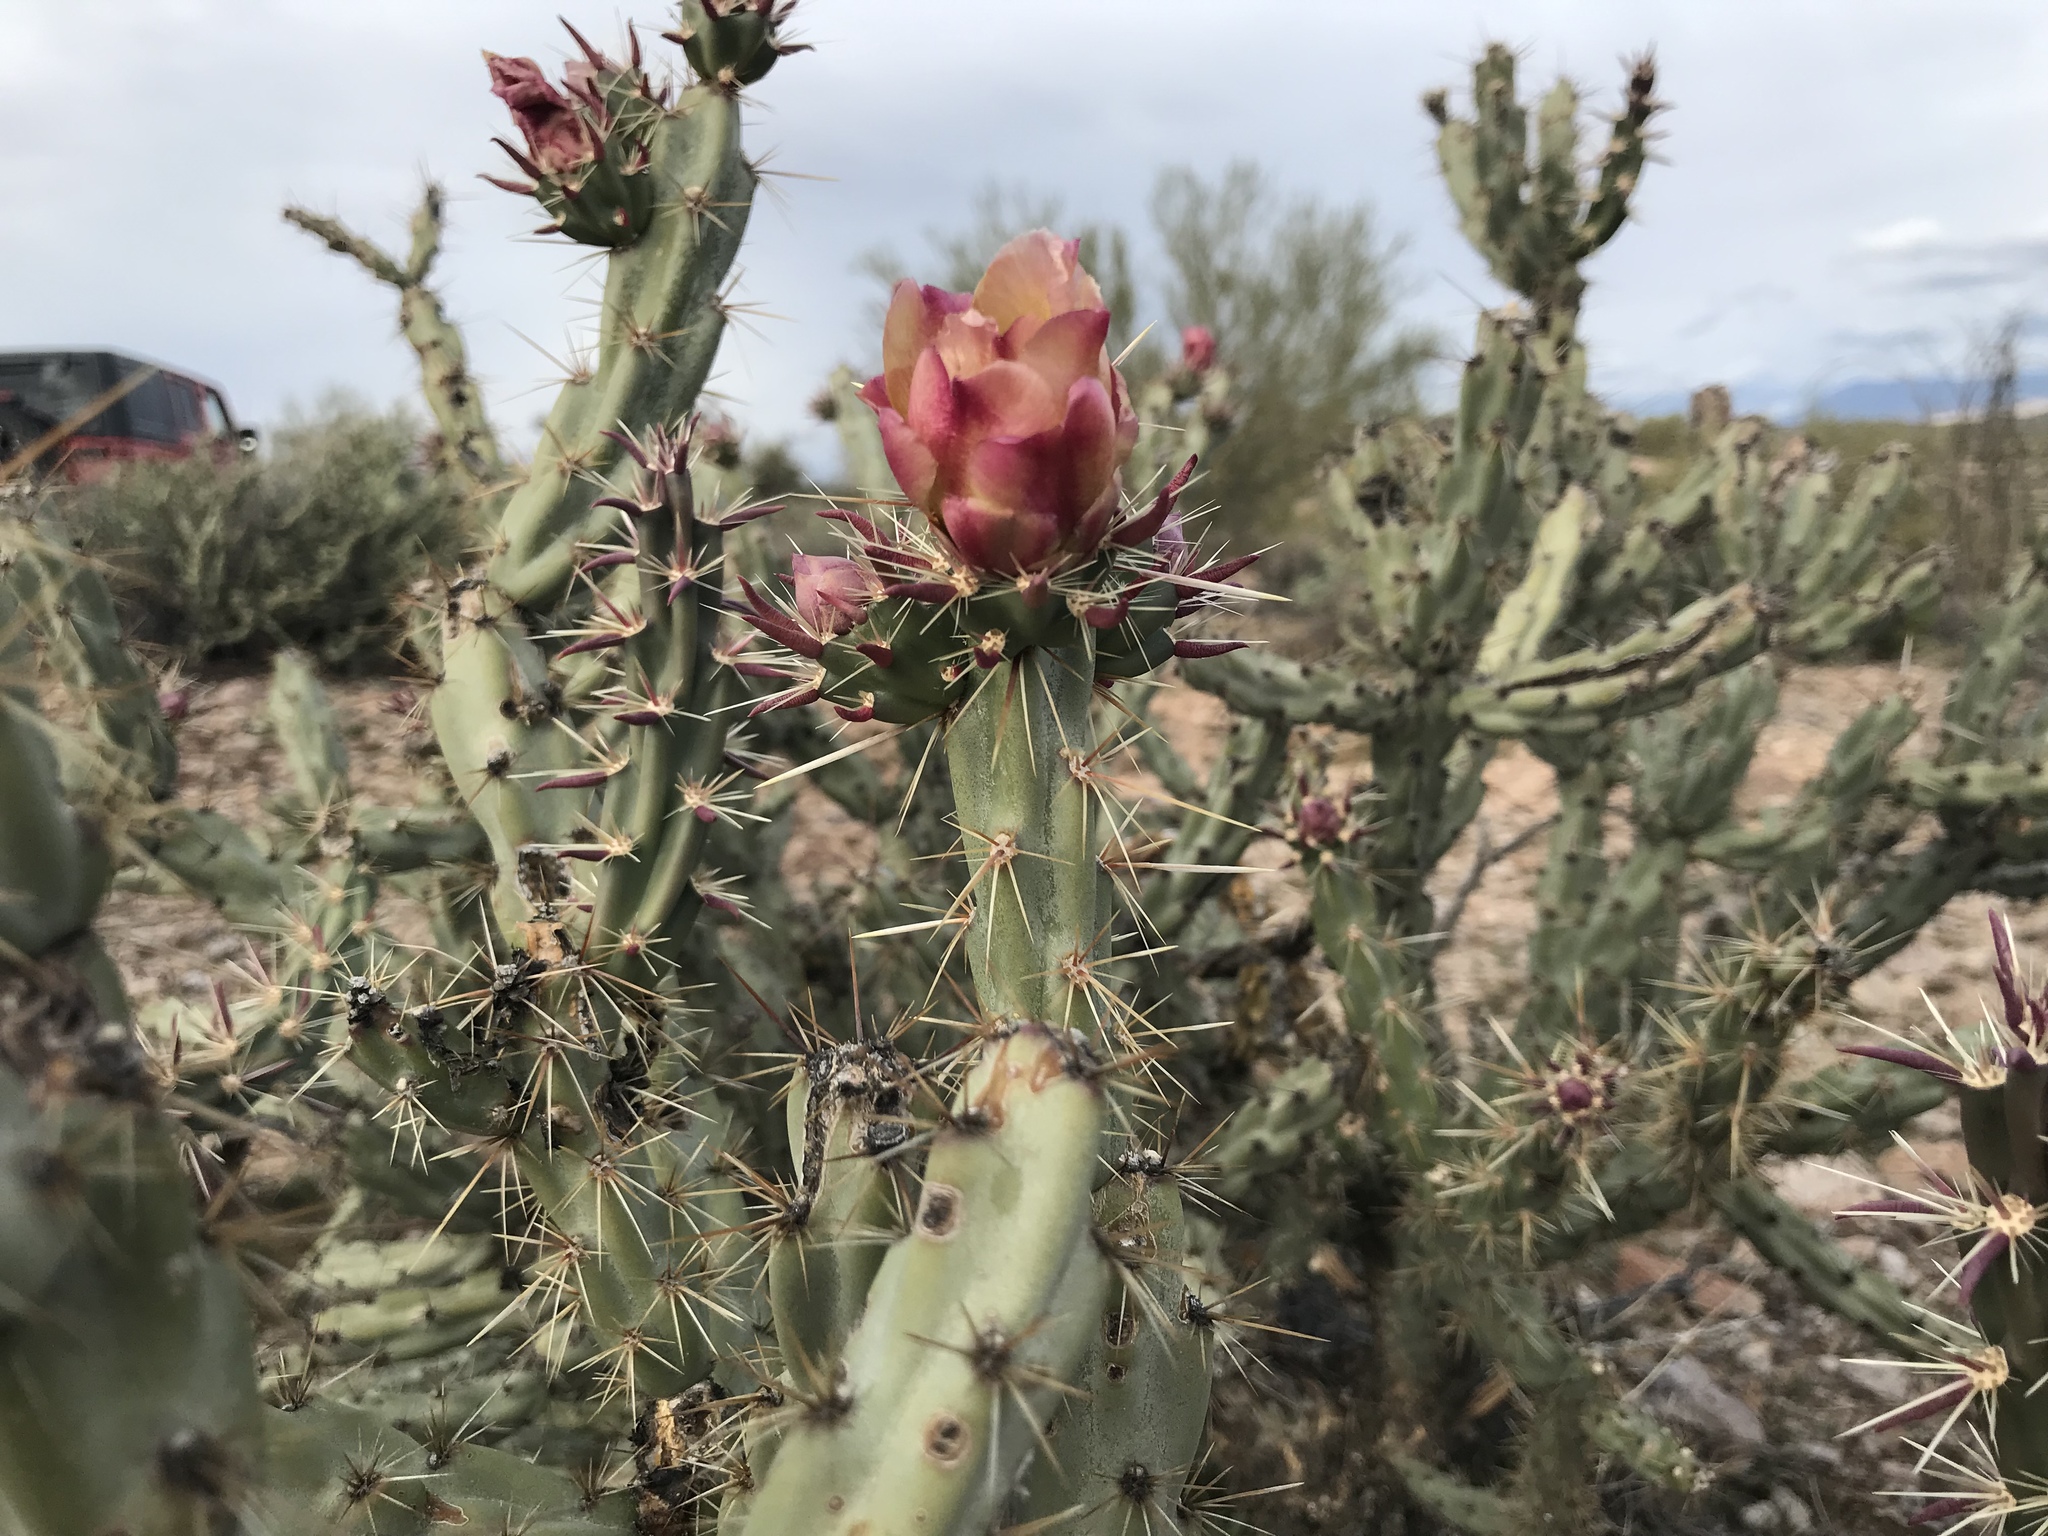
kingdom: Plantae
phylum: Tracheophyta
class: Magnoliopsida
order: Caryophyllales
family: Cactaceae
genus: Cylindropuntia
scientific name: Cylindropuntia acanthocarpa
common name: Buckhorn cholla
